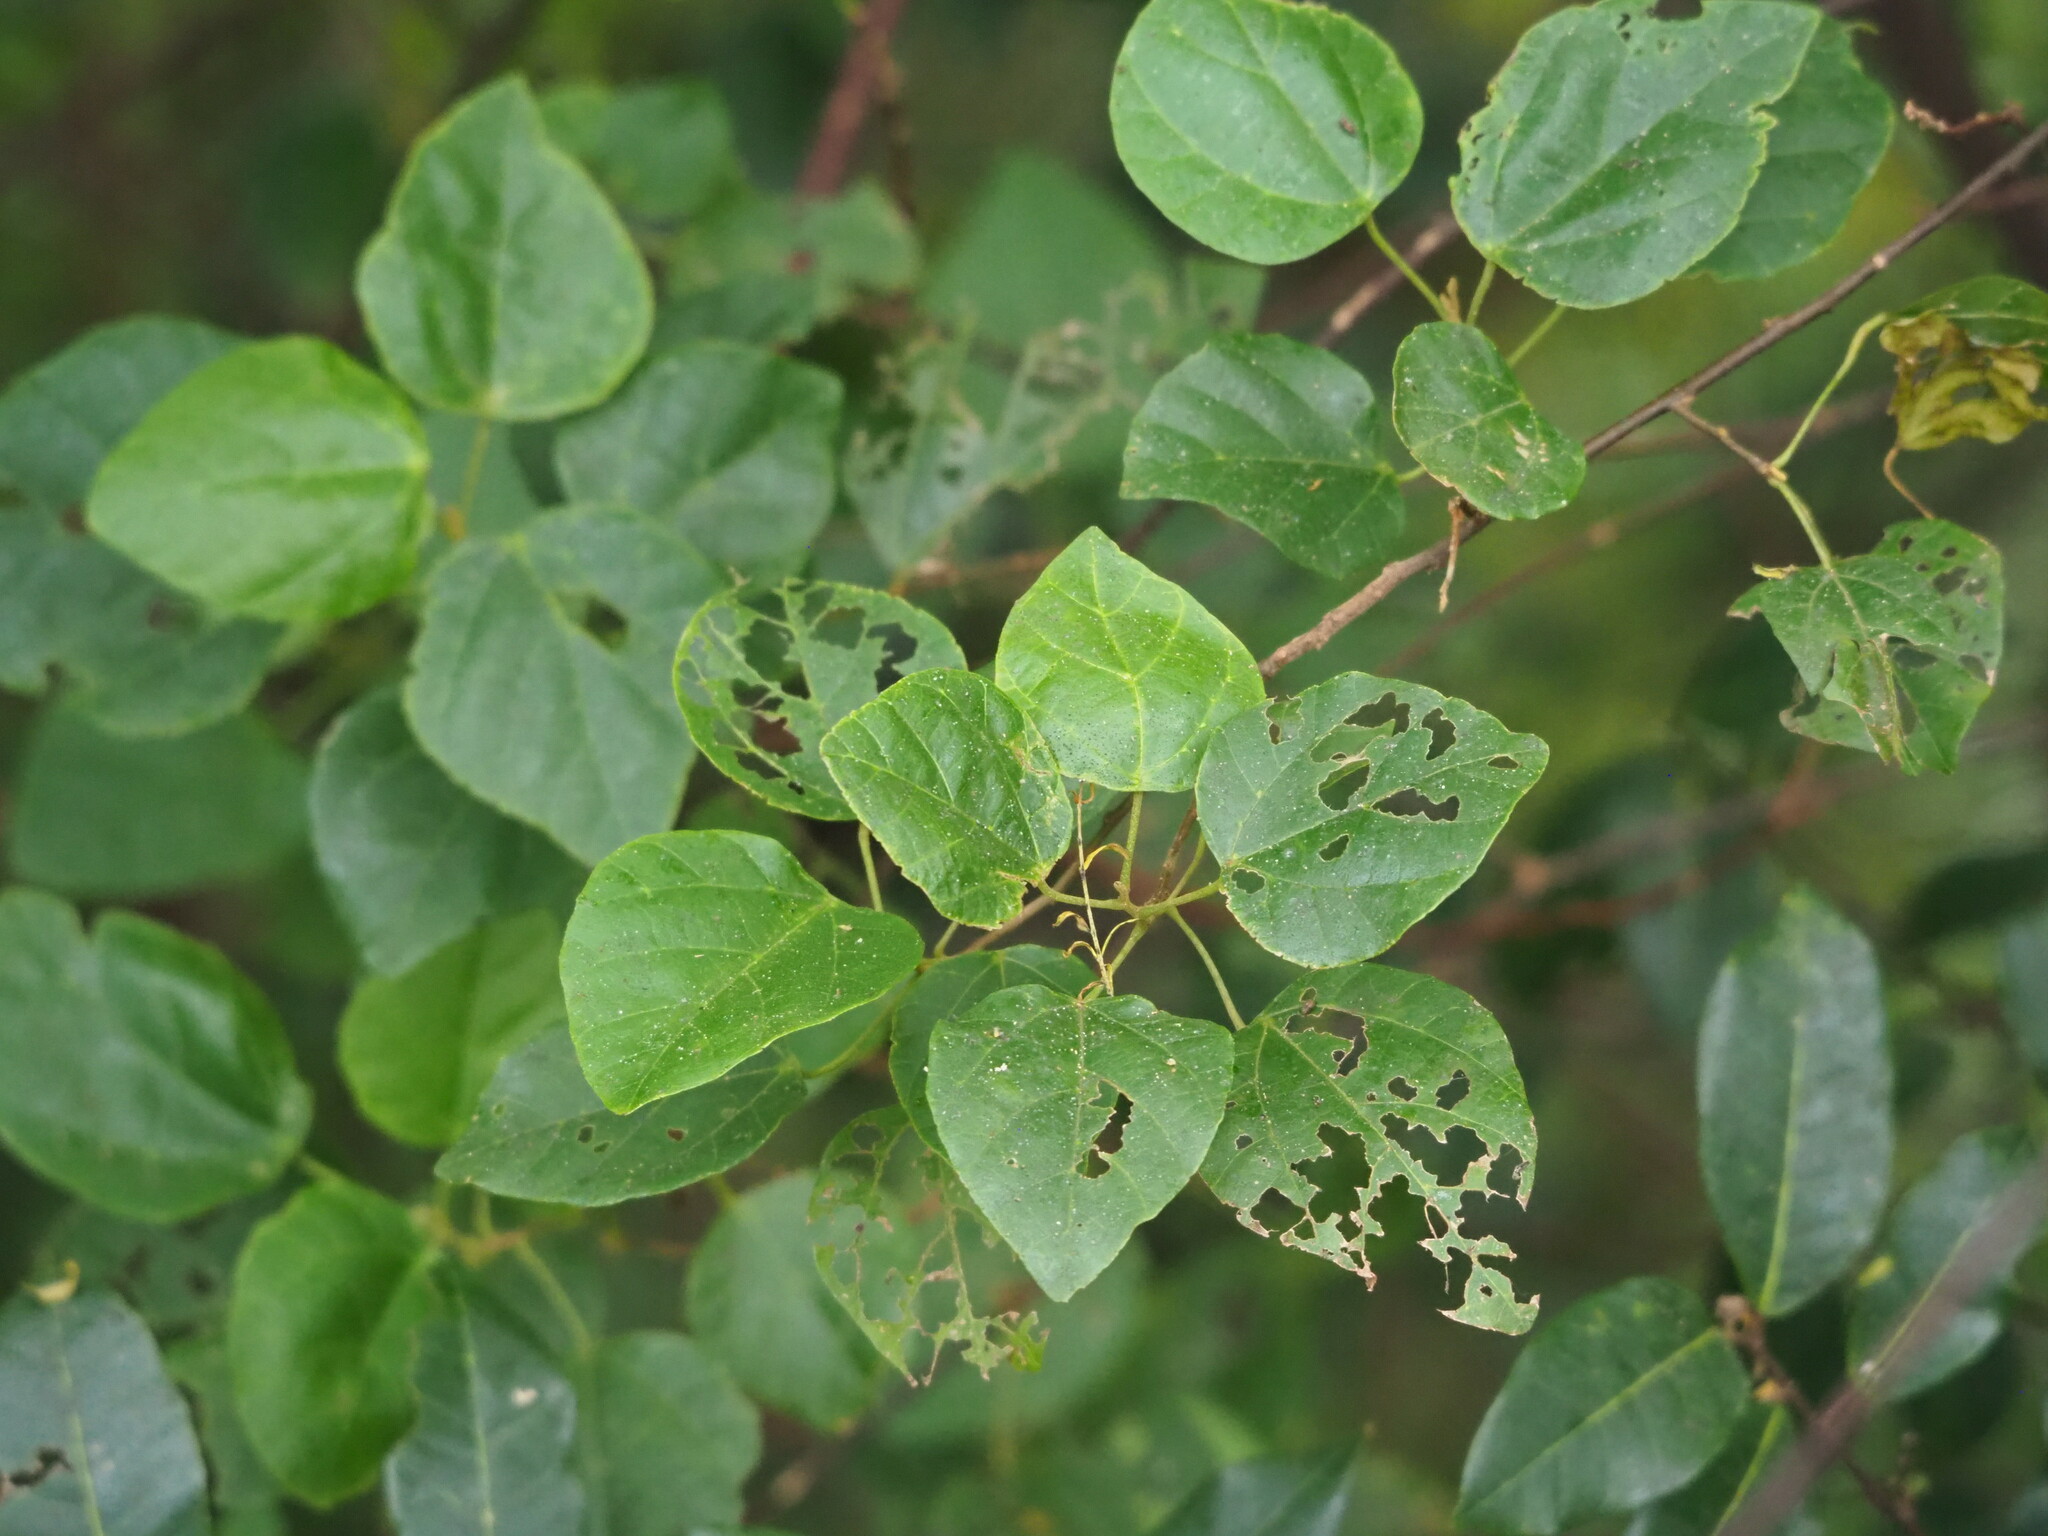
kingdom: Plantae
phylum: Tracheophyta
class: Magnoliopsida
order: Malpighiales
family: Euphorbiaceae
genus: Mallotus
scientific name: Mallotus repandus
